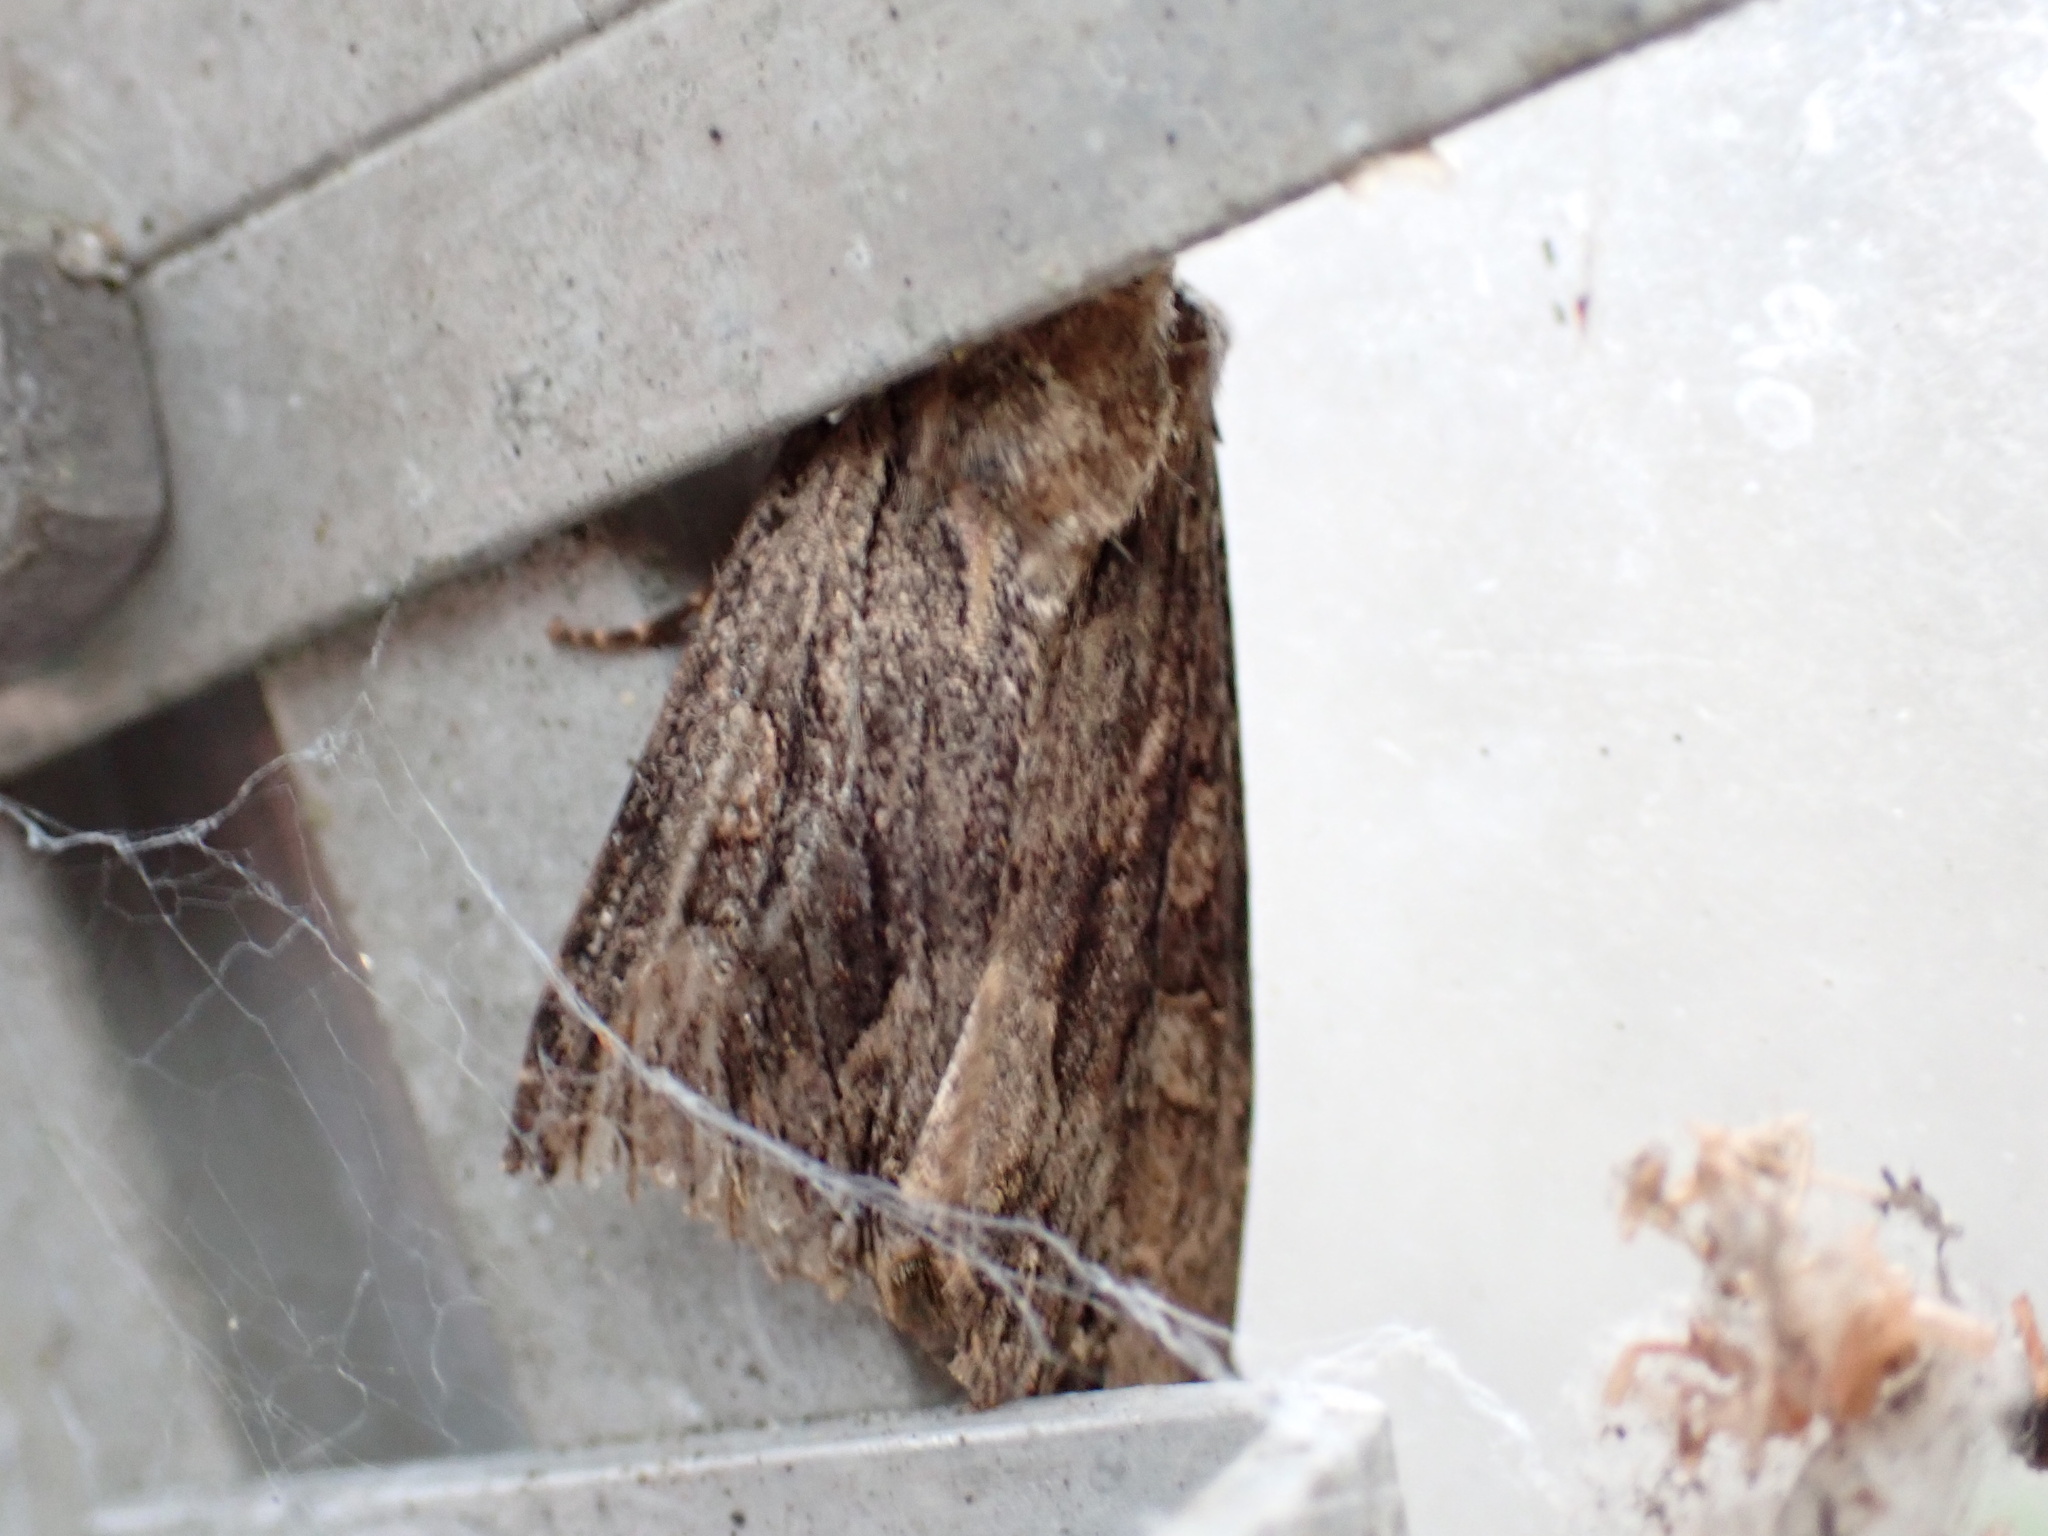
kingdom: Animalia
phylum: Arthropoda
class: Insecta
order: Lepidoptera
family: Noctuidae
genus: Apamea
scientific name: Apamea monoglypha
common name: Dark arches
